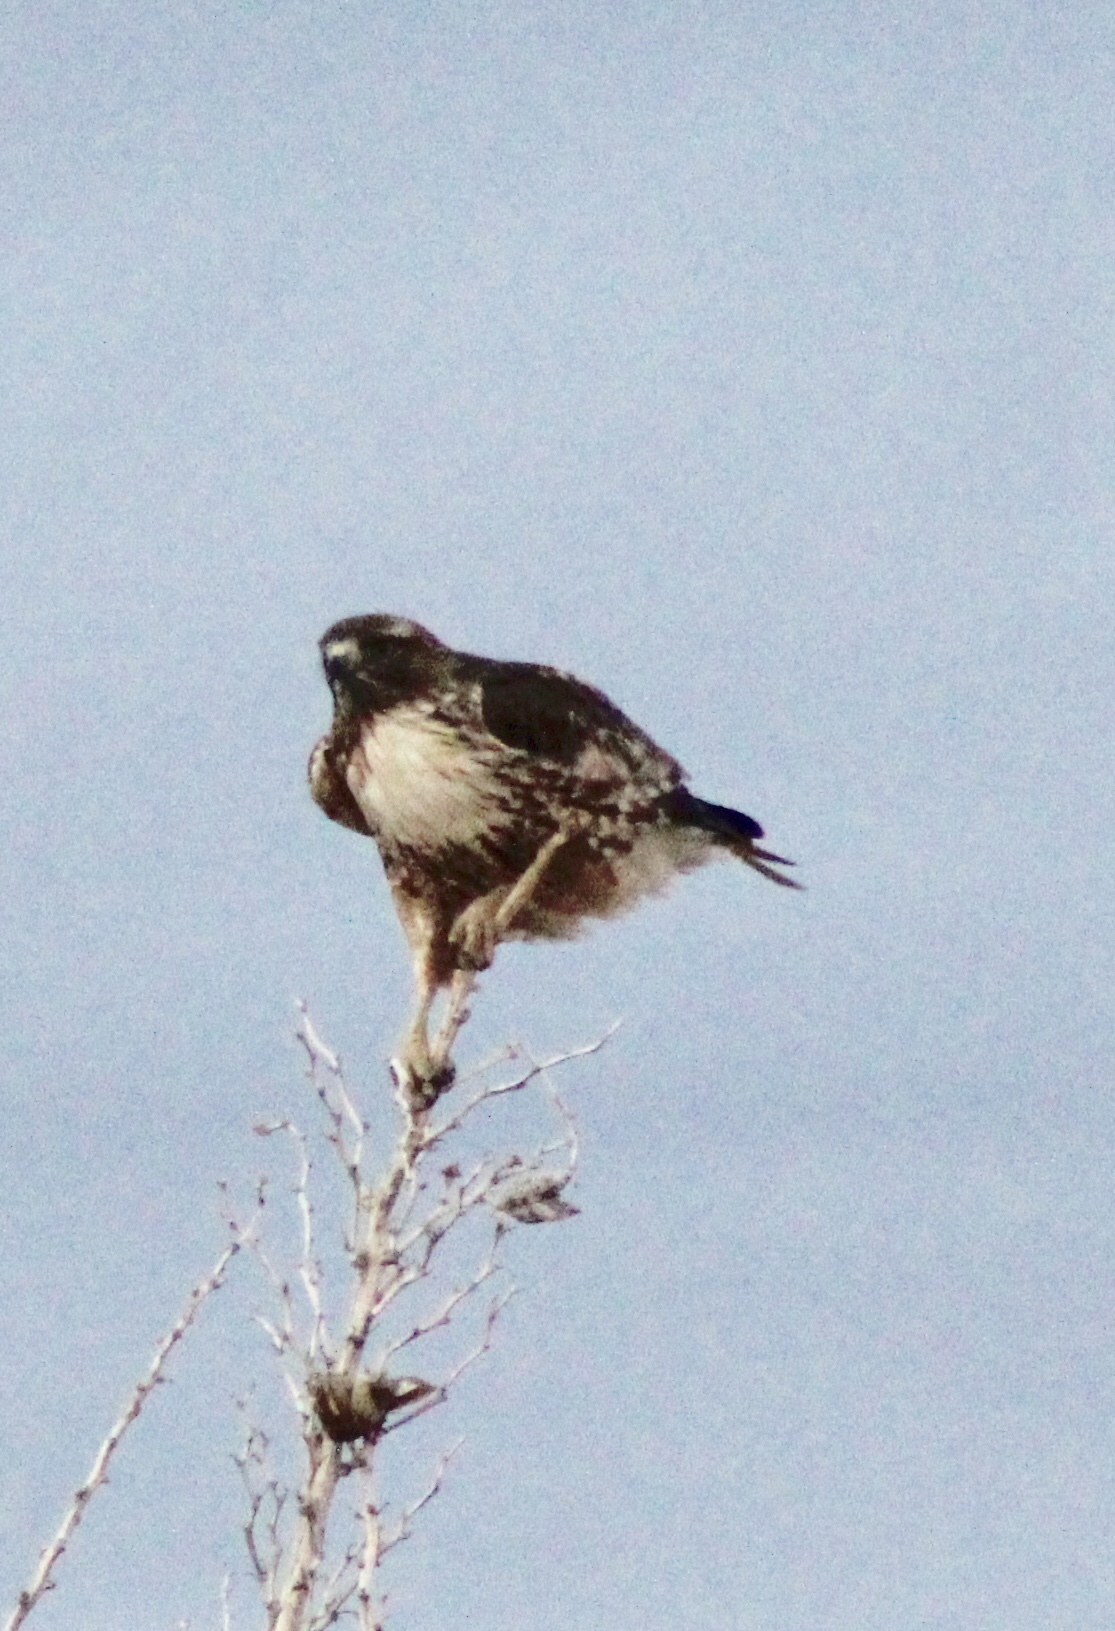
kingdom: Animalia
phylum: Chordata
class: Aves
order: Accipitriformes
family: Accipitridae
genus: Buteo
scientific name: Buteo jamaicensis
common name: Red-tailed hawk
